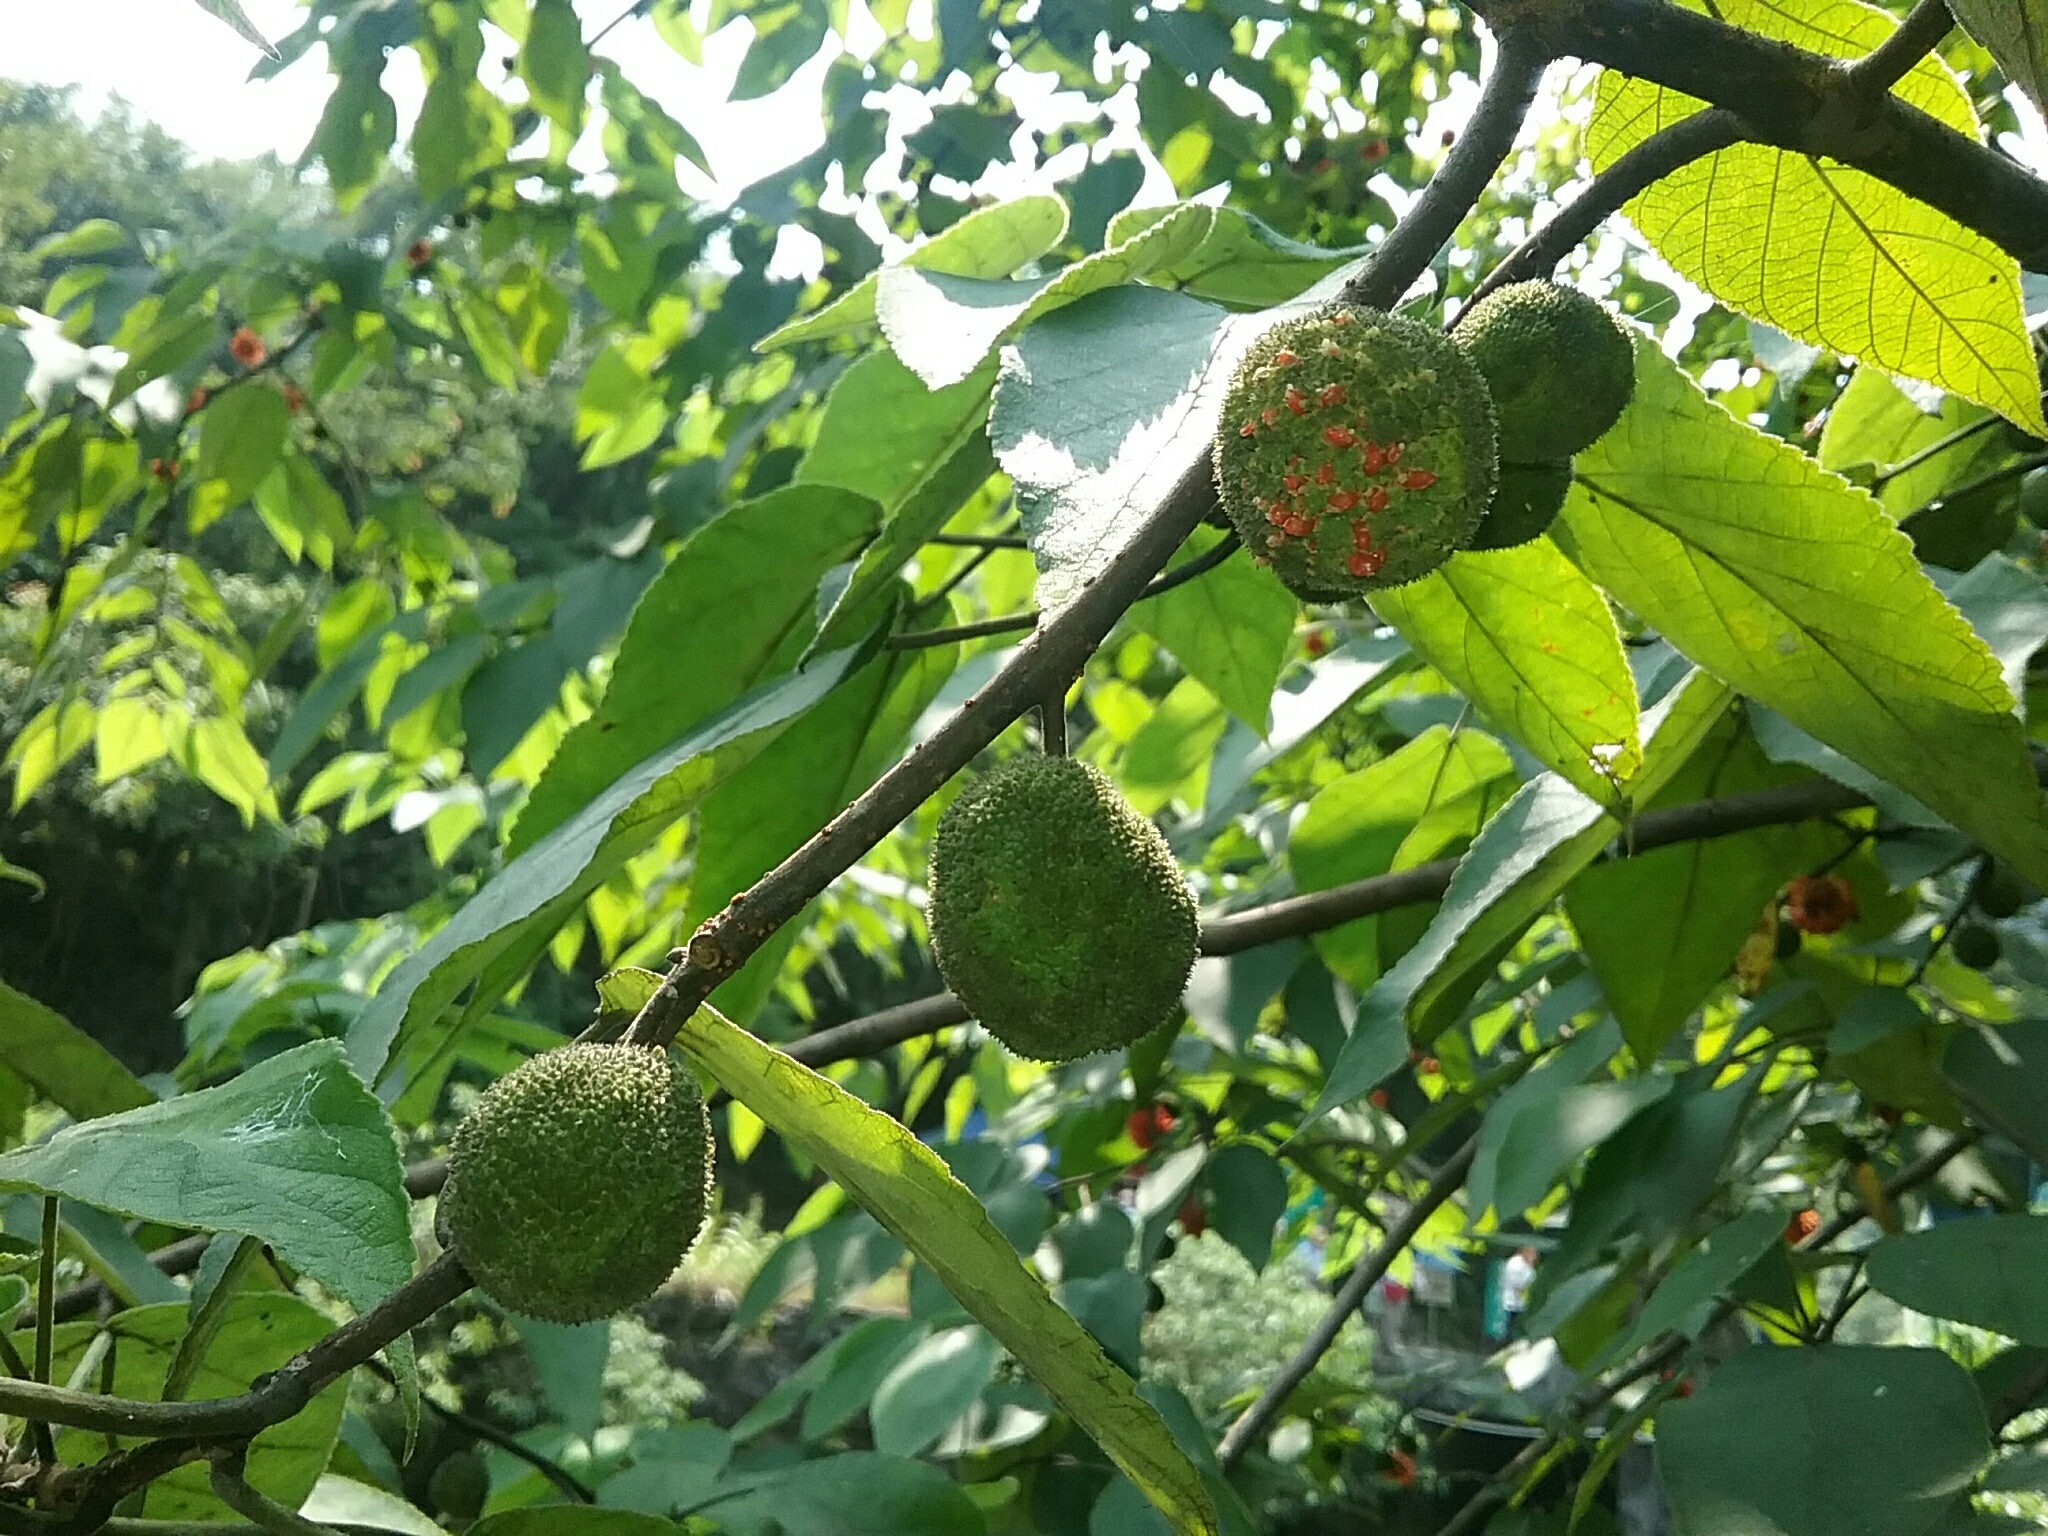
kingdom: Plantae
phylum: Tracheophyta
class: Magnoliopsida
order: Rosales
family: Moraceae
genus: Broussonetia
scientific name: Broussonetia papyrifera
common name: Paper mulberry
